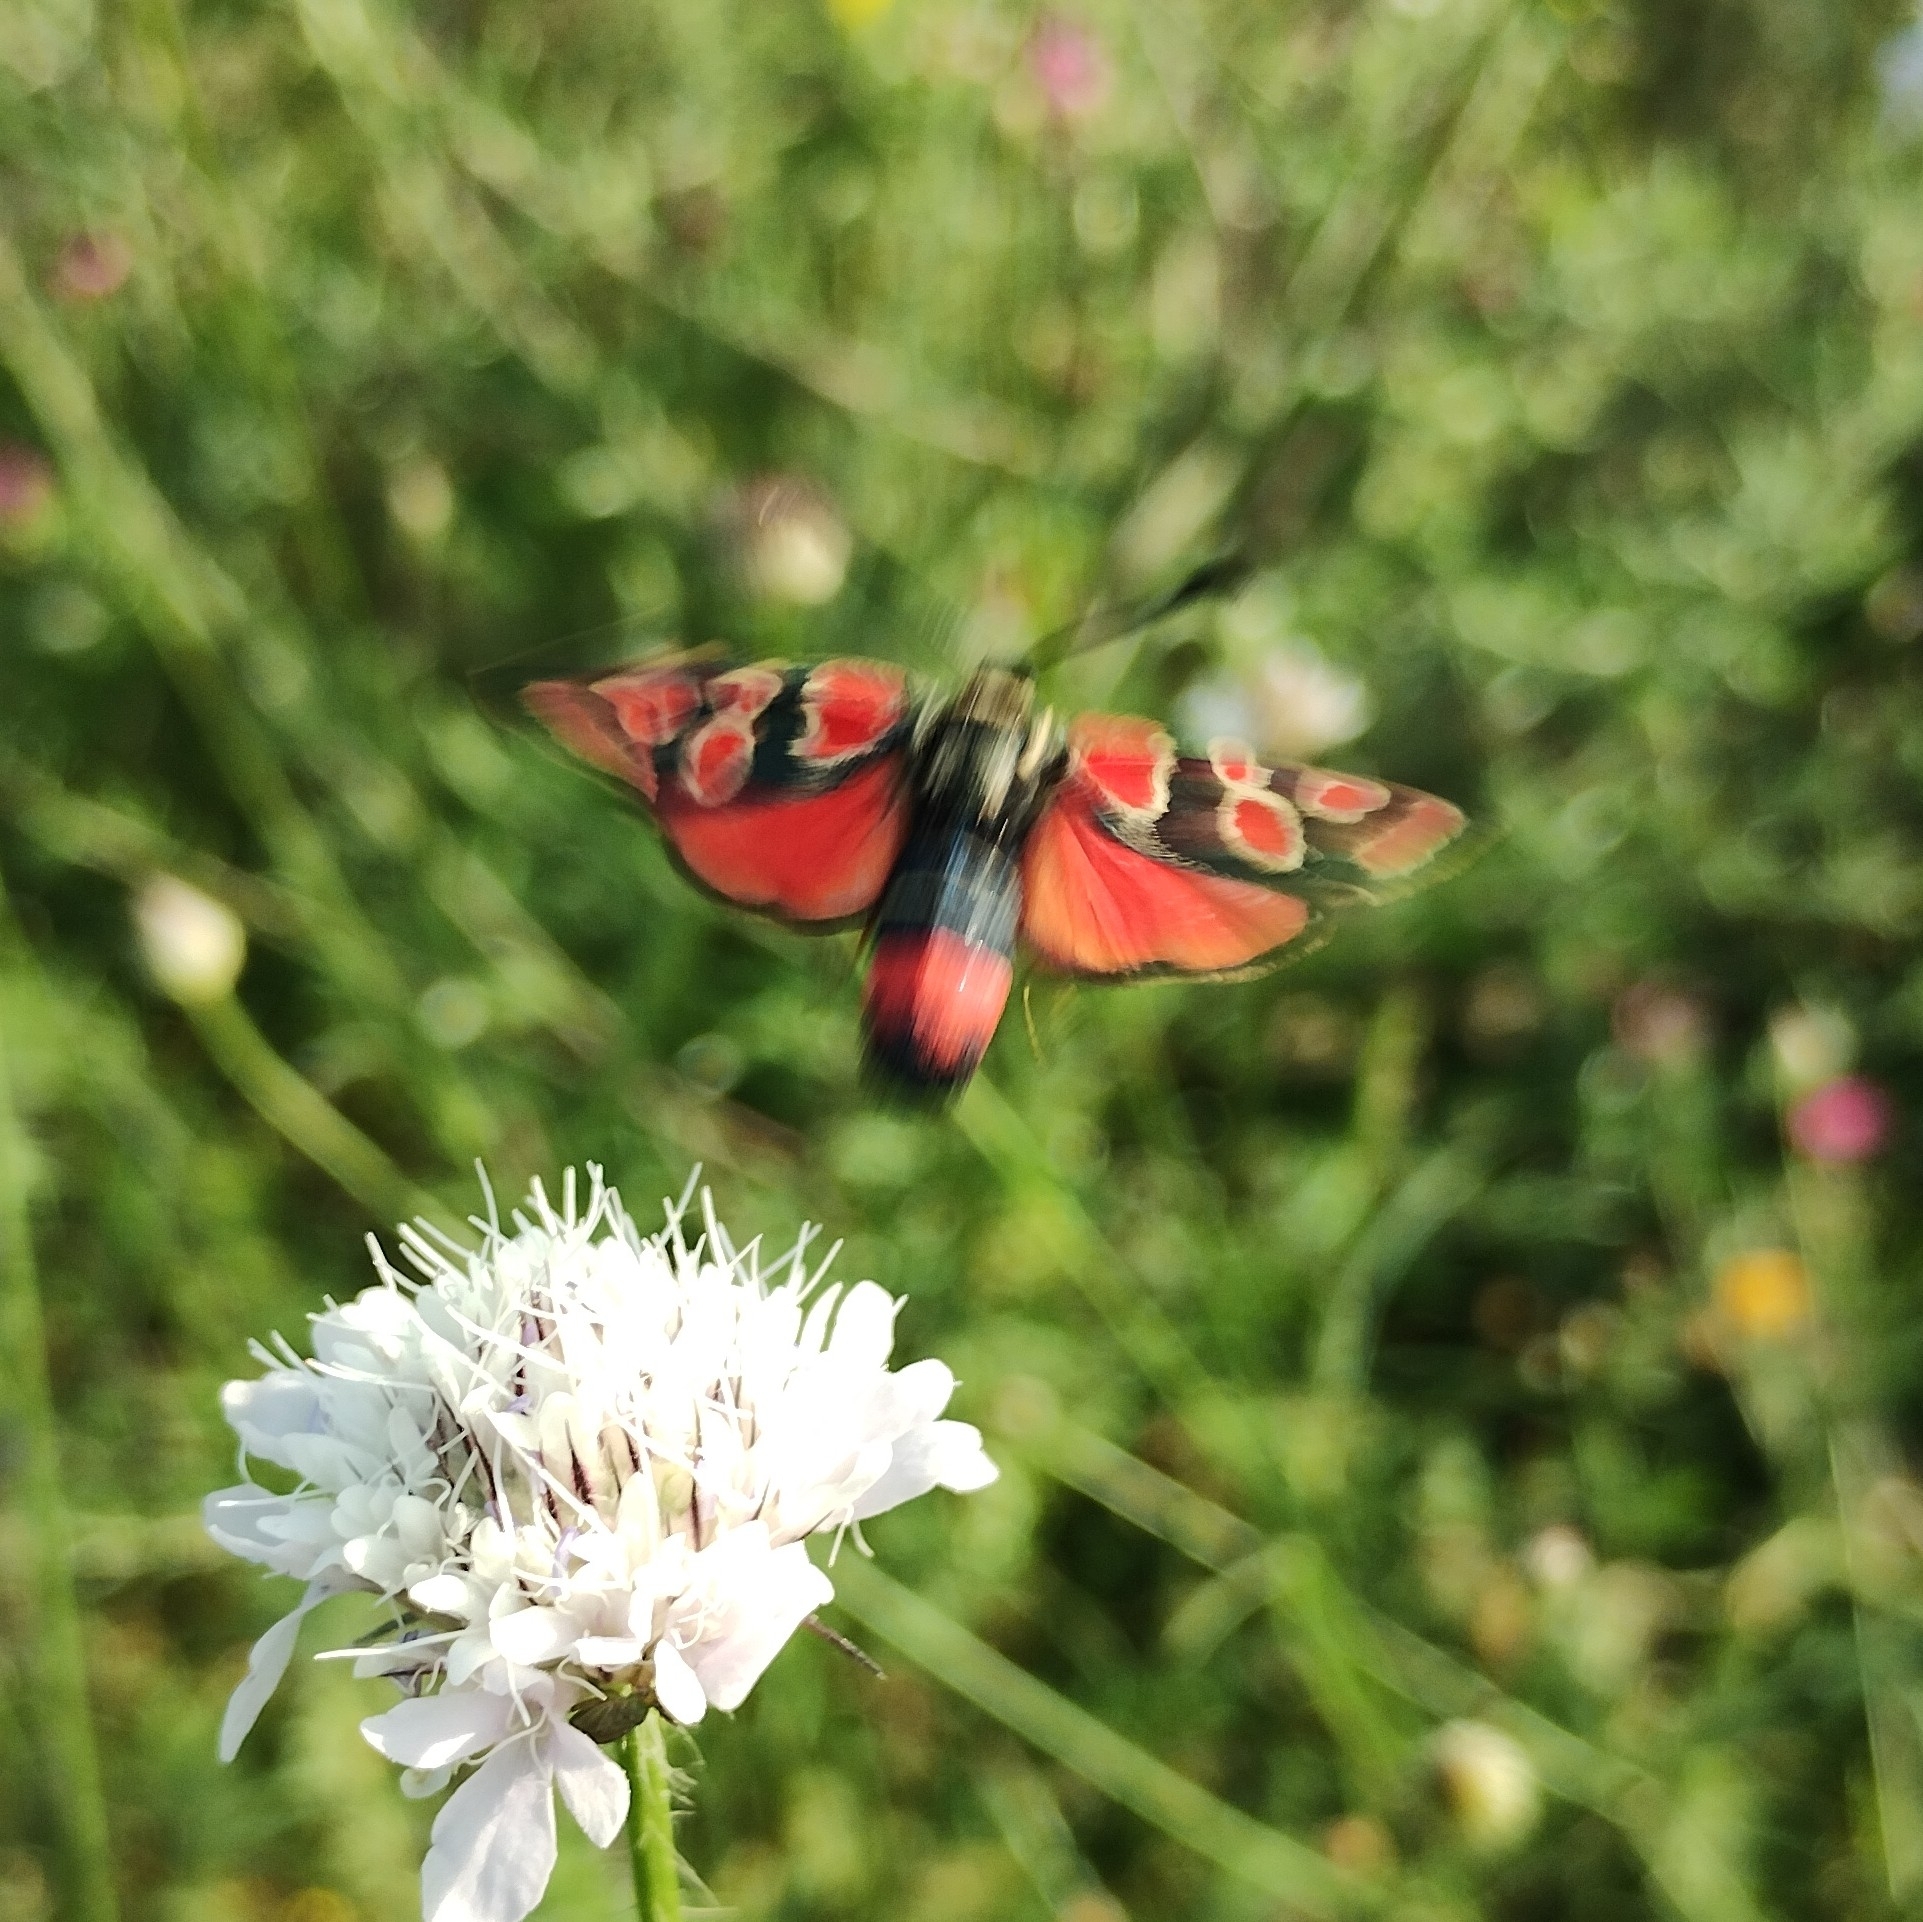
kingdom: Animalia
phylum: Arthropoda
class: Insecta
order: Lepidoptera
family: Zygaenidae
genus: Zygaena
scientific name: Zygaena carniolica
